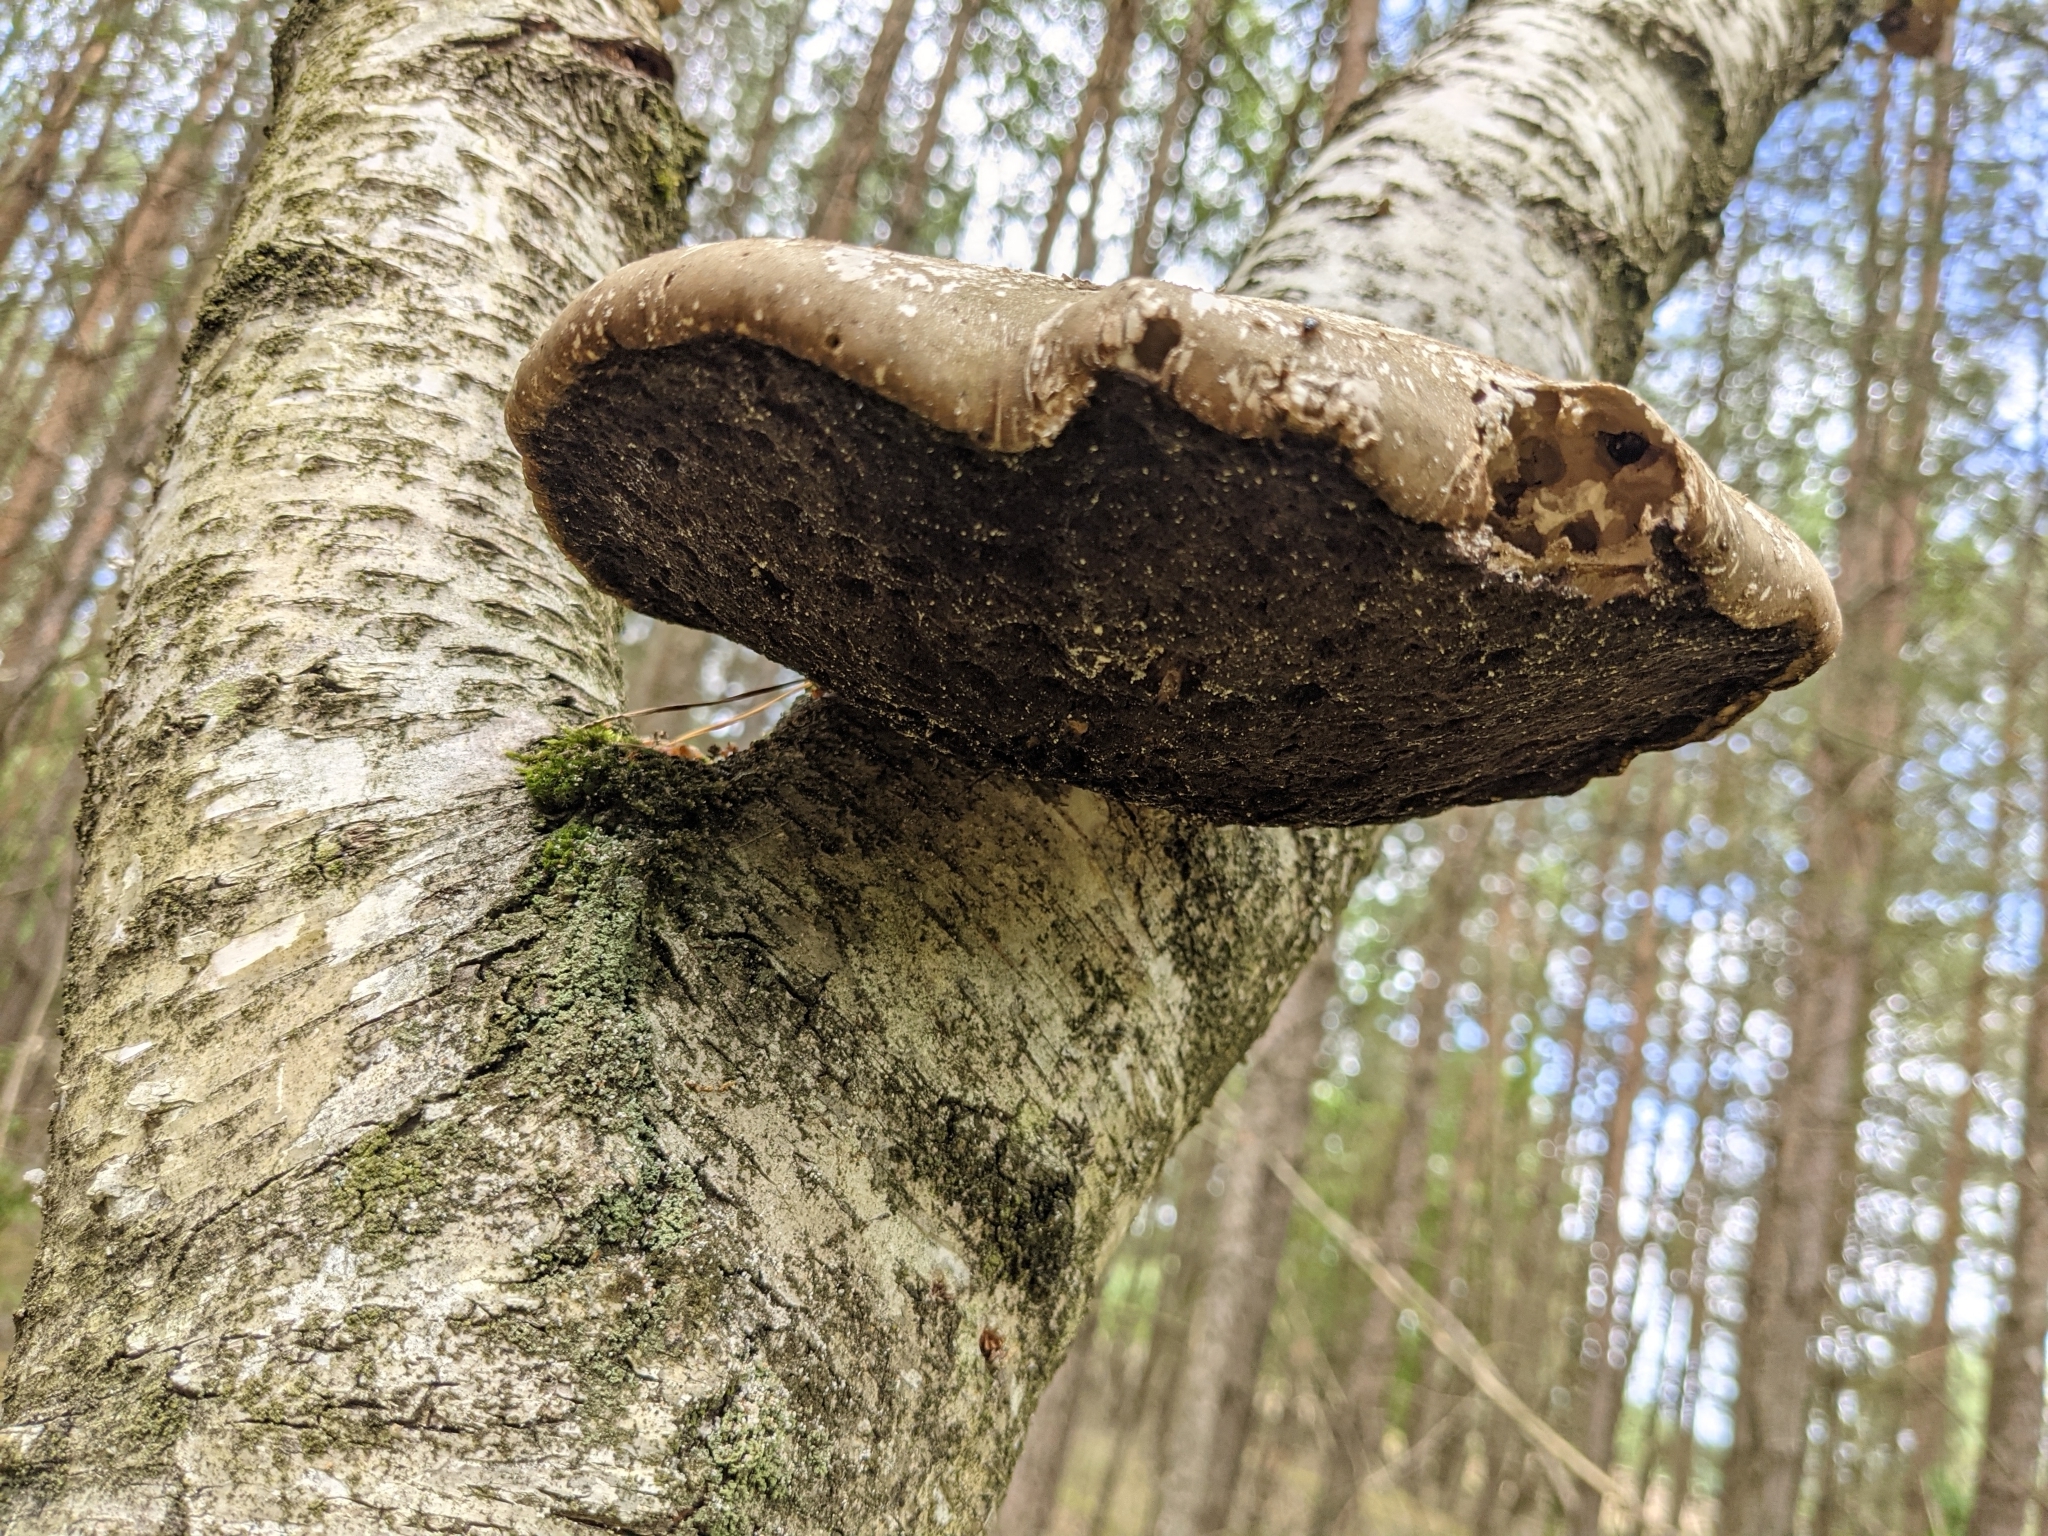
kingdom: Fungi
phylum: Basidiomycota
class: Agaricomycetes
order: Polyporales
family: Fomitopsidaceae
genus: Fomitopsis
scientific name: Fomitopsis betulina
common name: Birch polypore
